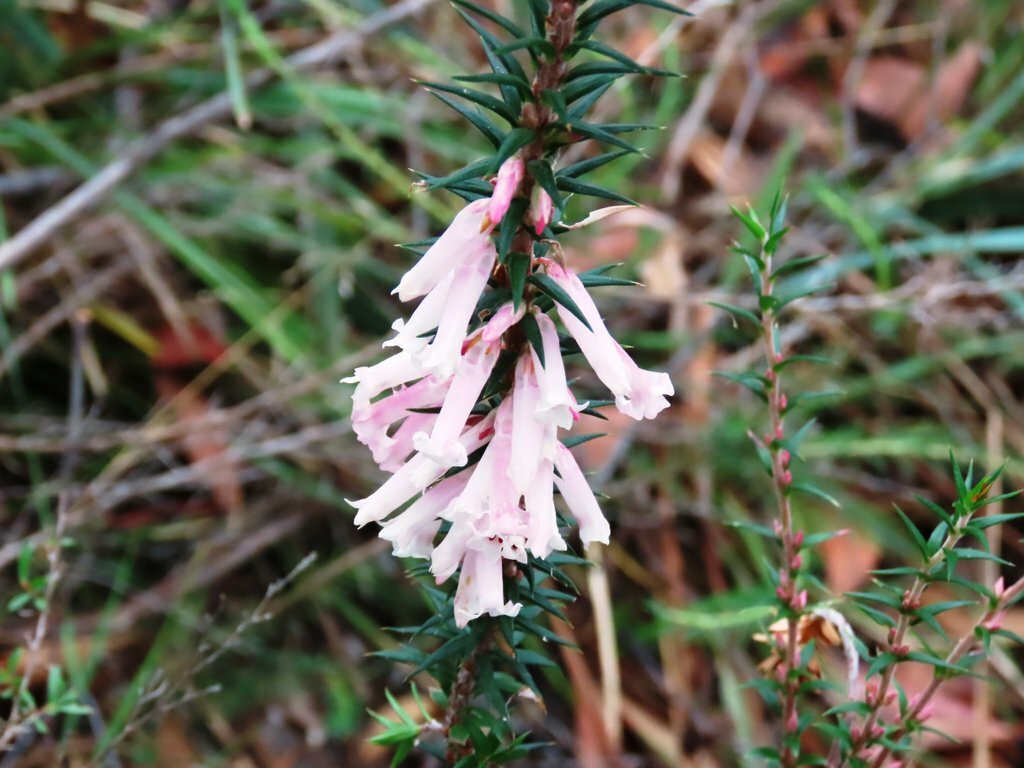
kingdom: Plantae
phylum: Tracheophyta
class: Magnoliopsida
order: Ericales
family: Ericaceae
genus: Epacris
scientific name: Epacris impressa
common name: Common-heath
